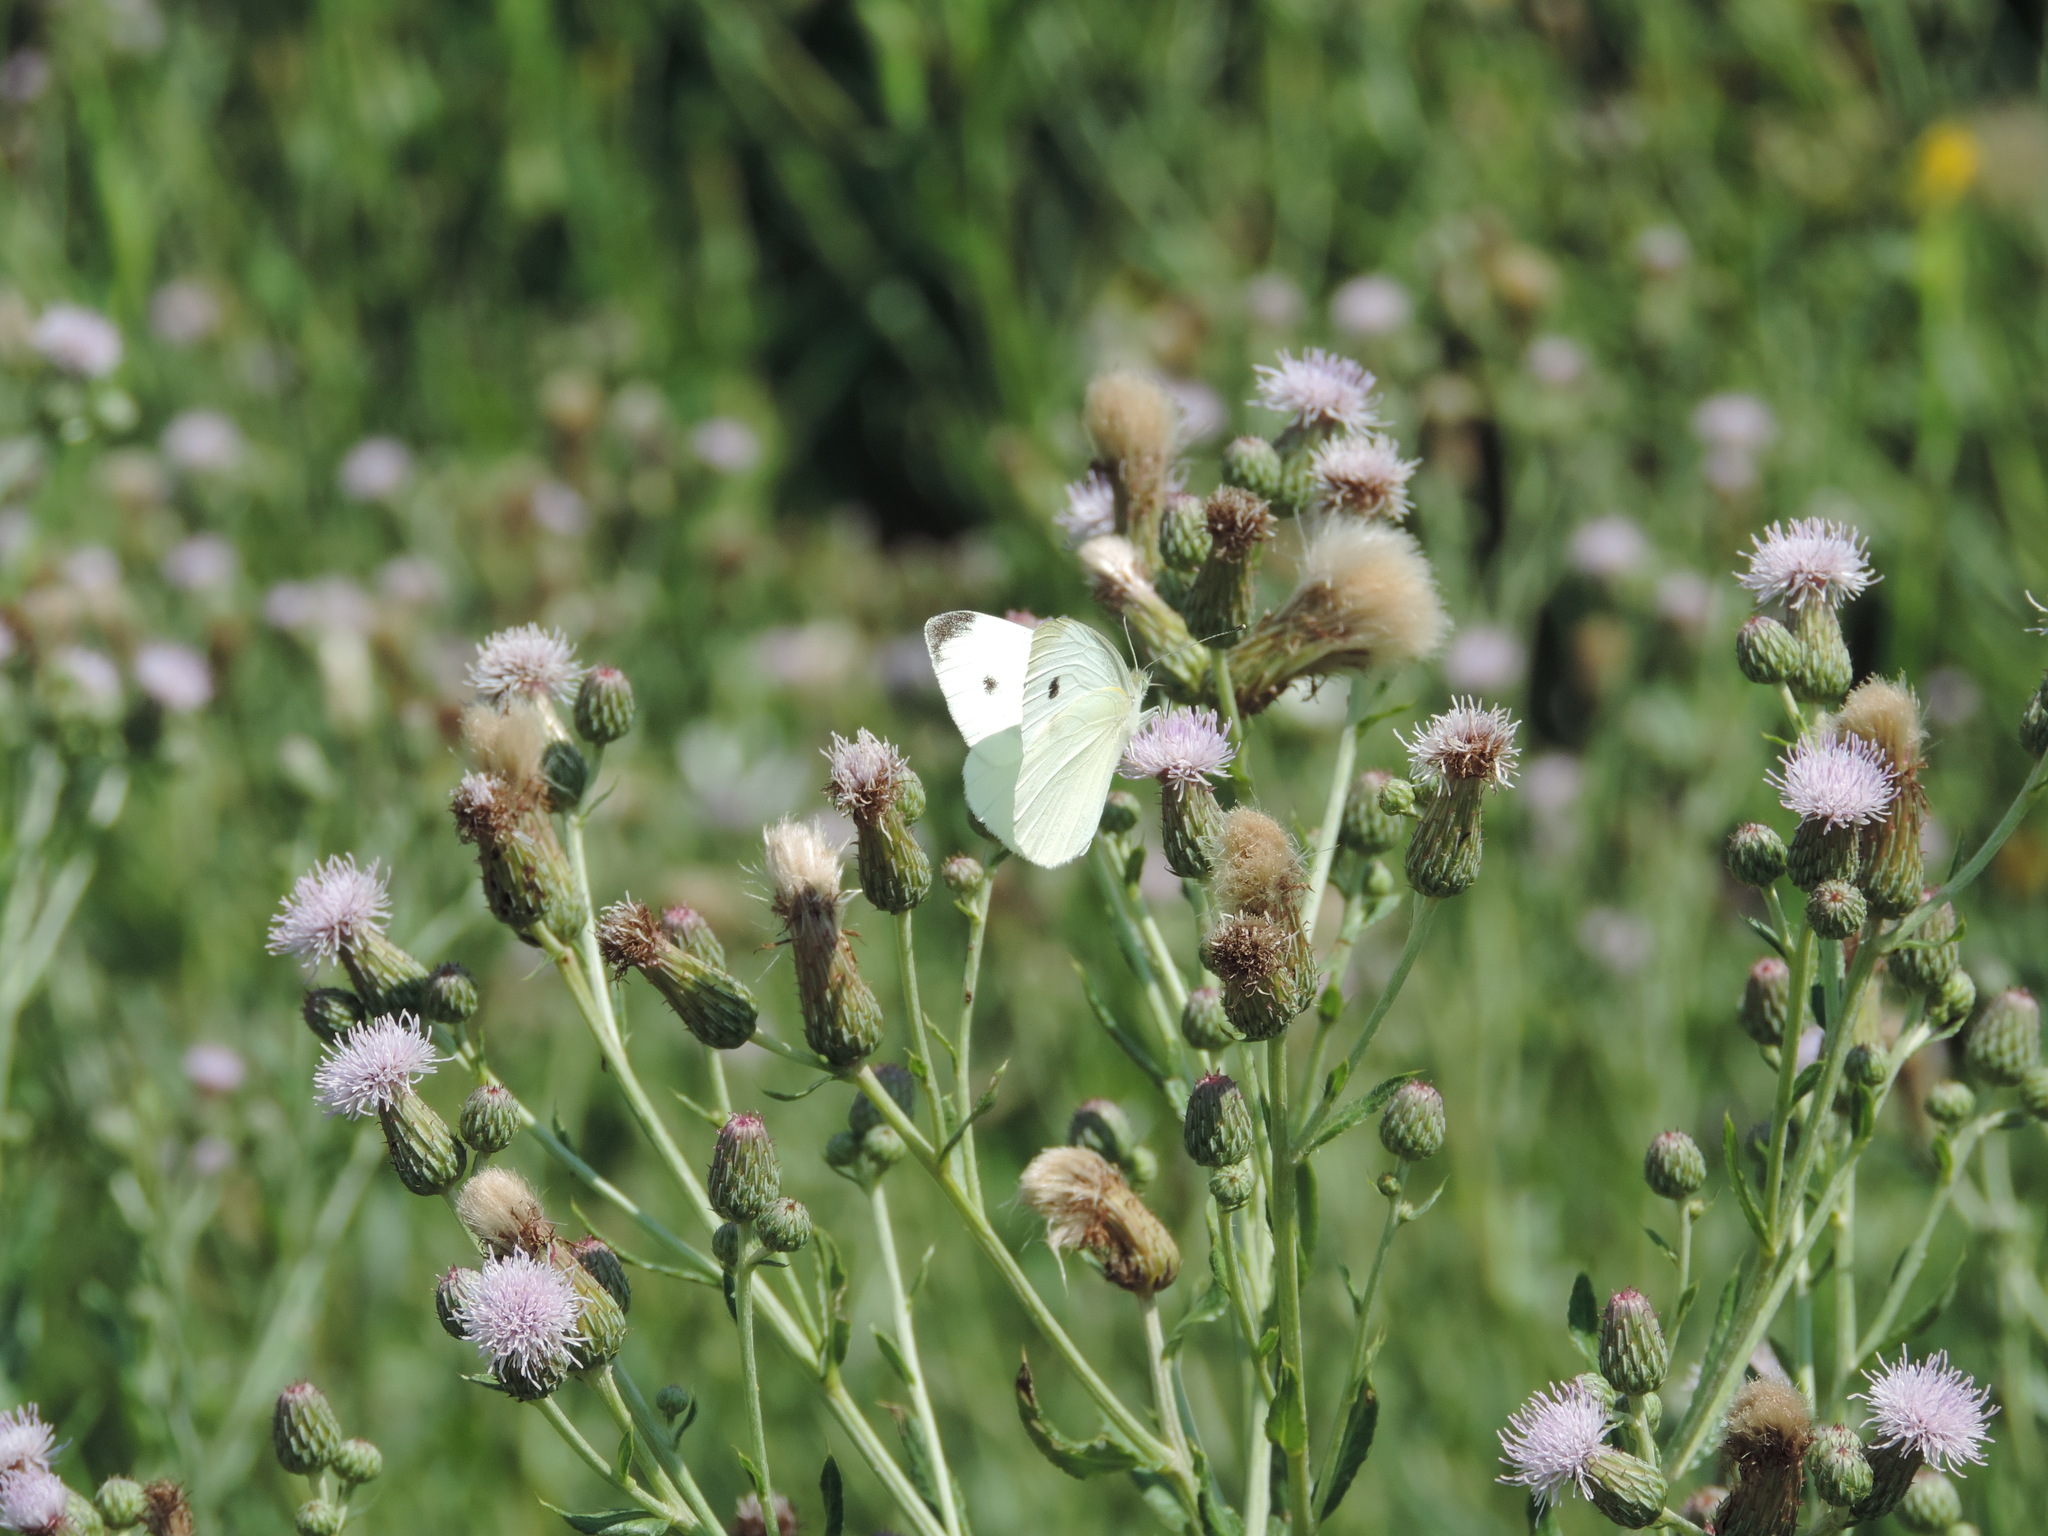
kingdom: Animalia
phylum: Arthropoda
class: Insecta
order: Lepidoptera
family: Pieridae
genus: Pieris
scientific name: Pieris rapae
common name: Small white
